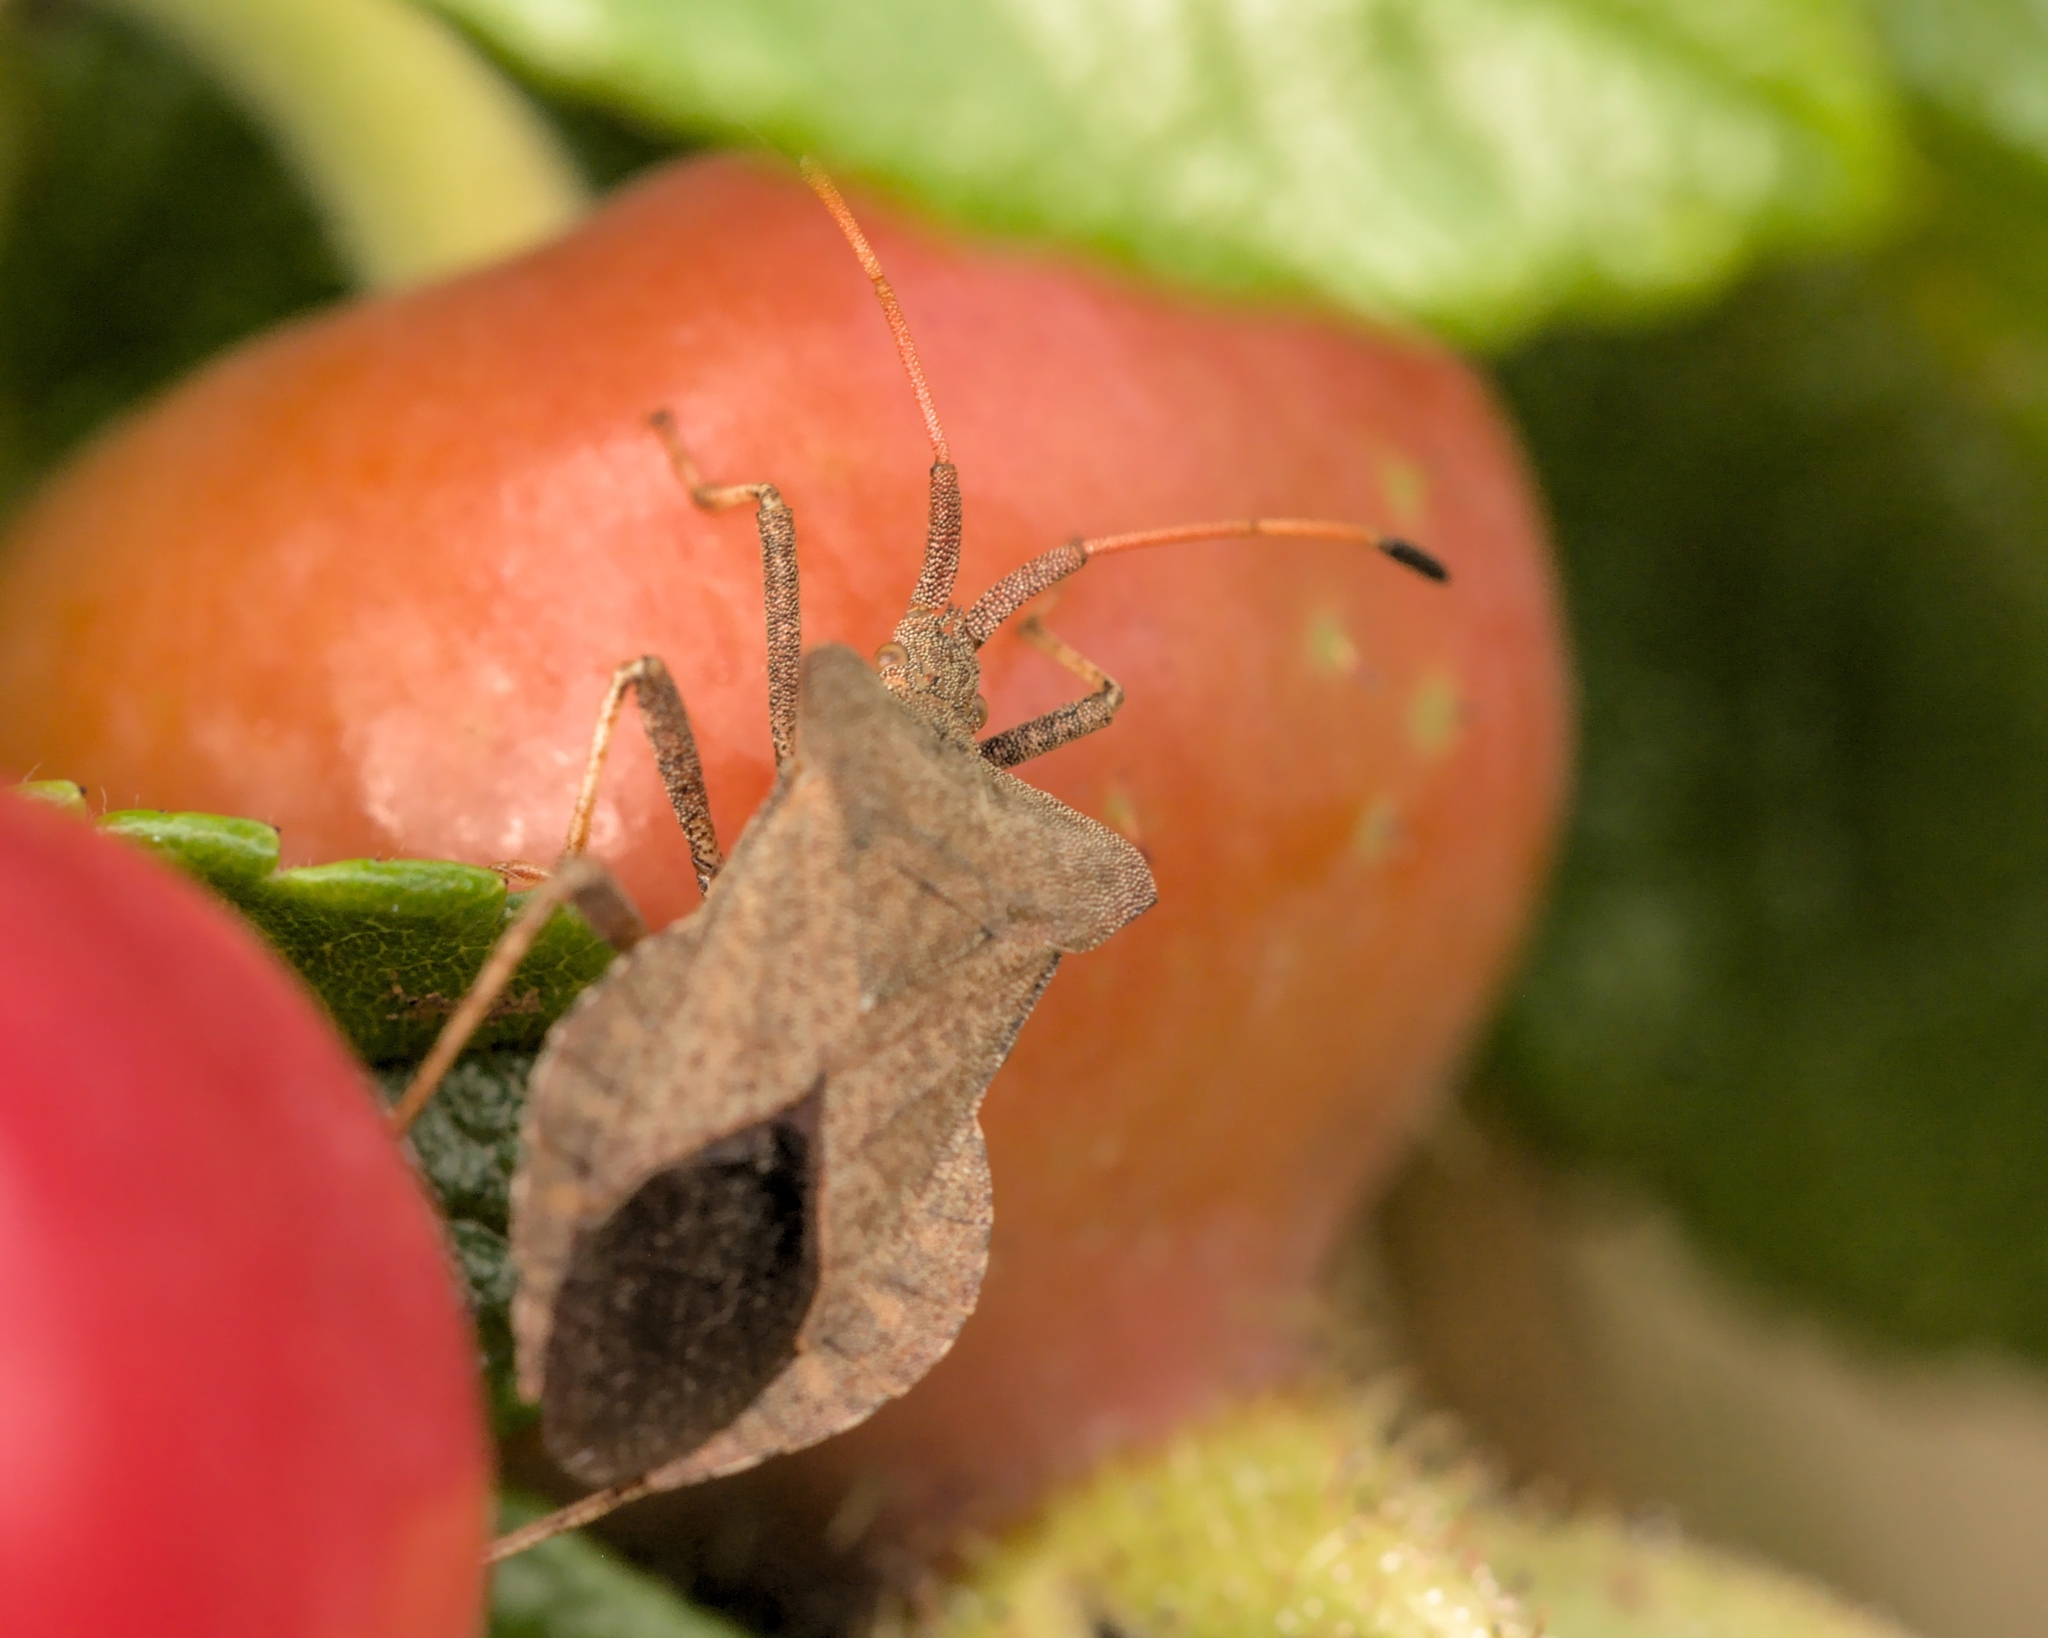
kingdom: Animalia
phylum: Arthropoda
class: Insecta
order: Hemiptera
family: Coreidae
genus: Coreus
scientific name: Coreus marginatus
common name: Dock bug
